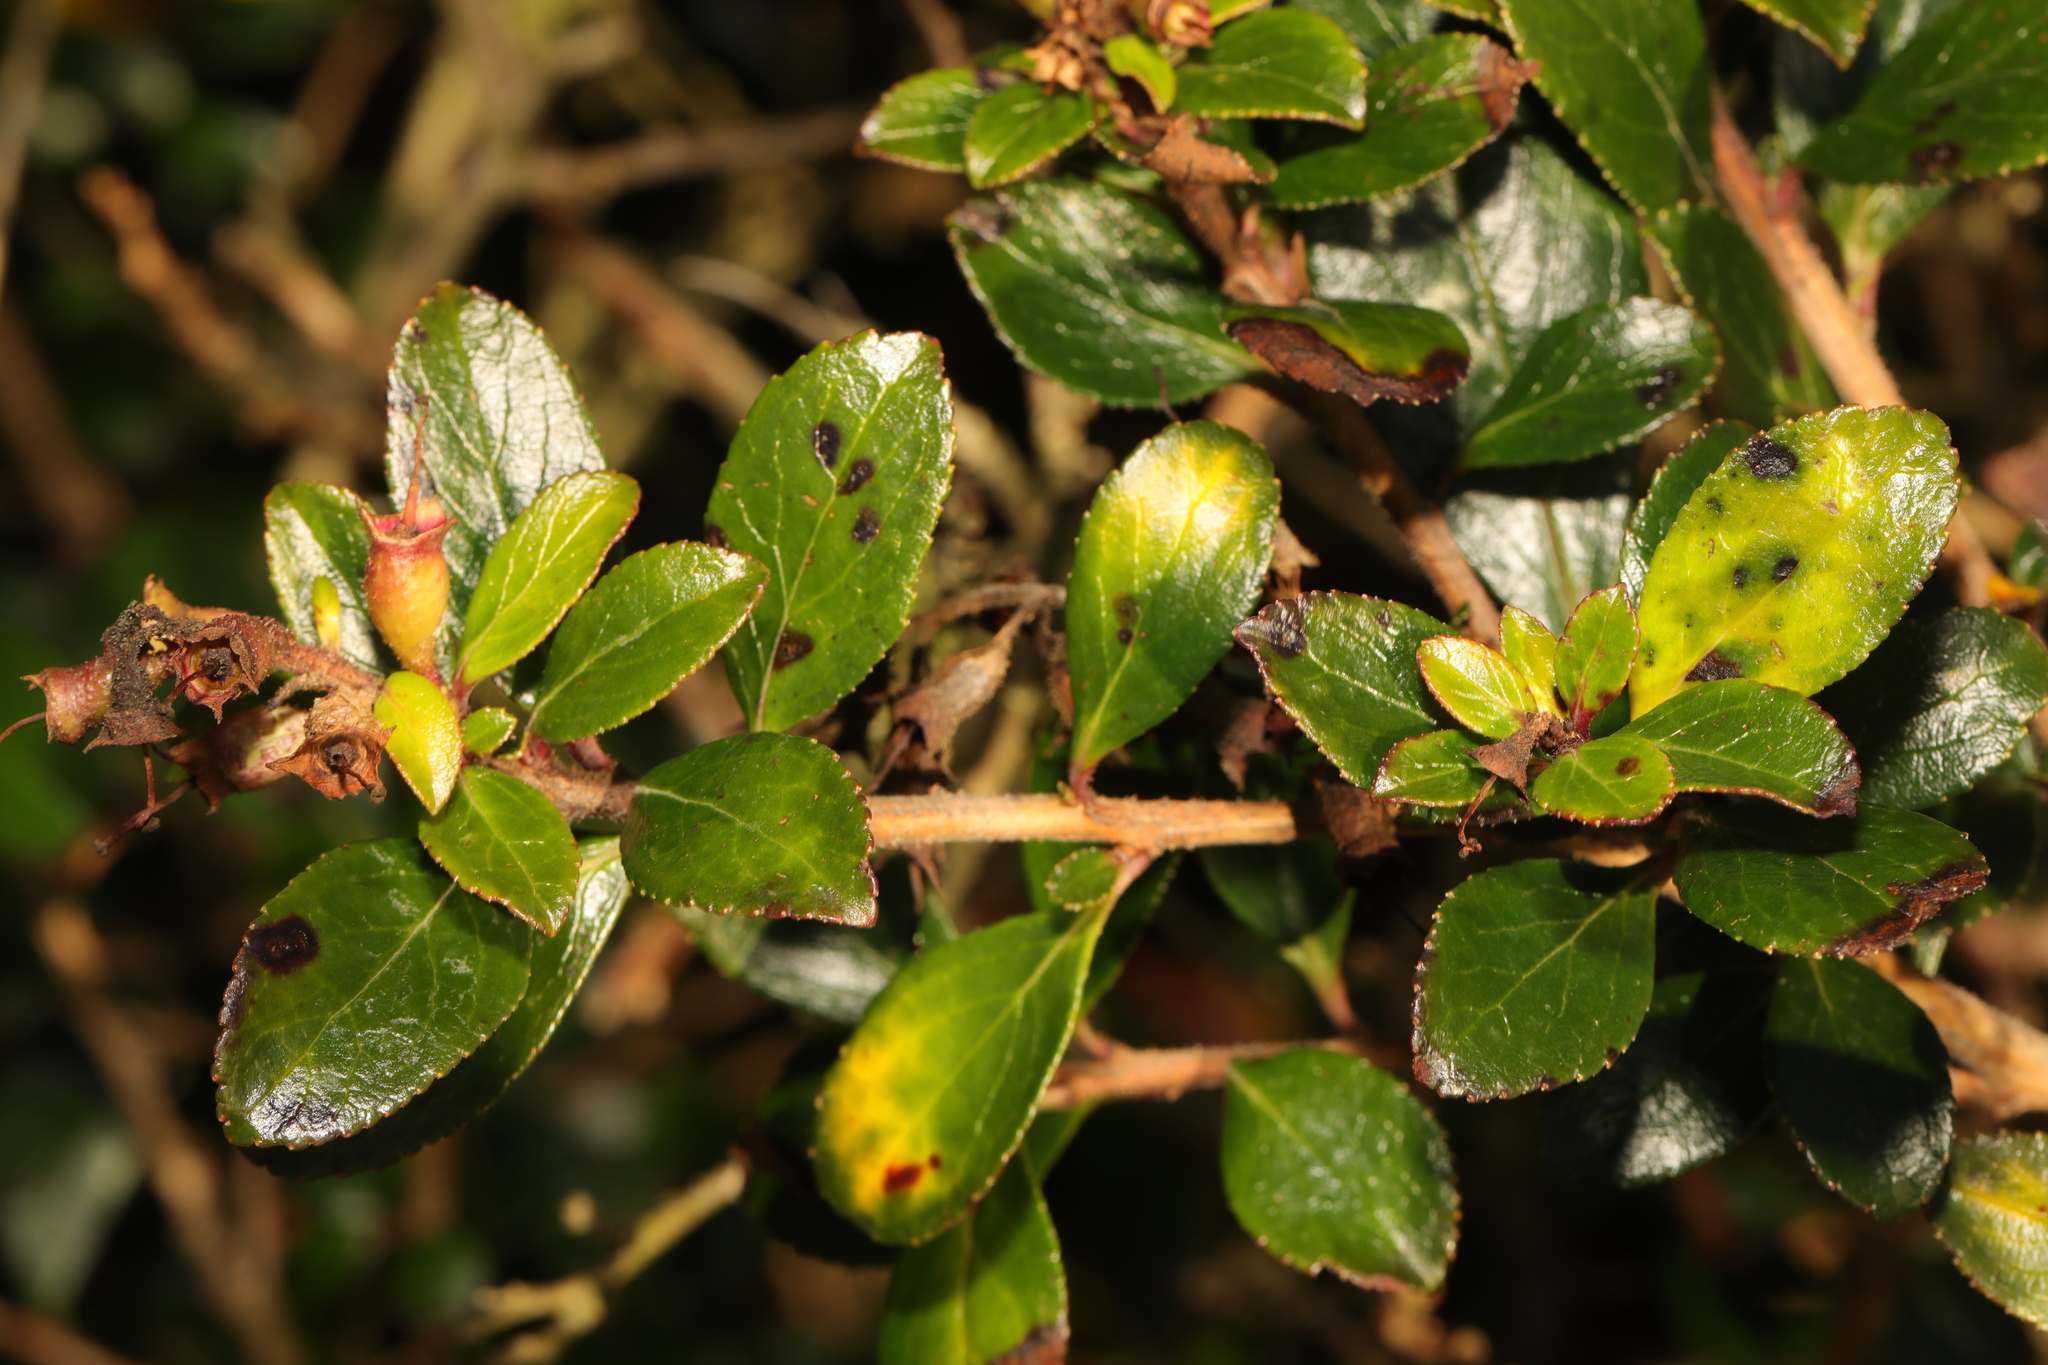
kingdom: Plantae
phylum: Tracheophyta
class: Magnoliopsida
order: Escalloniales
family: Escalloniaceae
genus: Escallonia
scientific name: Escallonia rubra
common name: Redclaws
